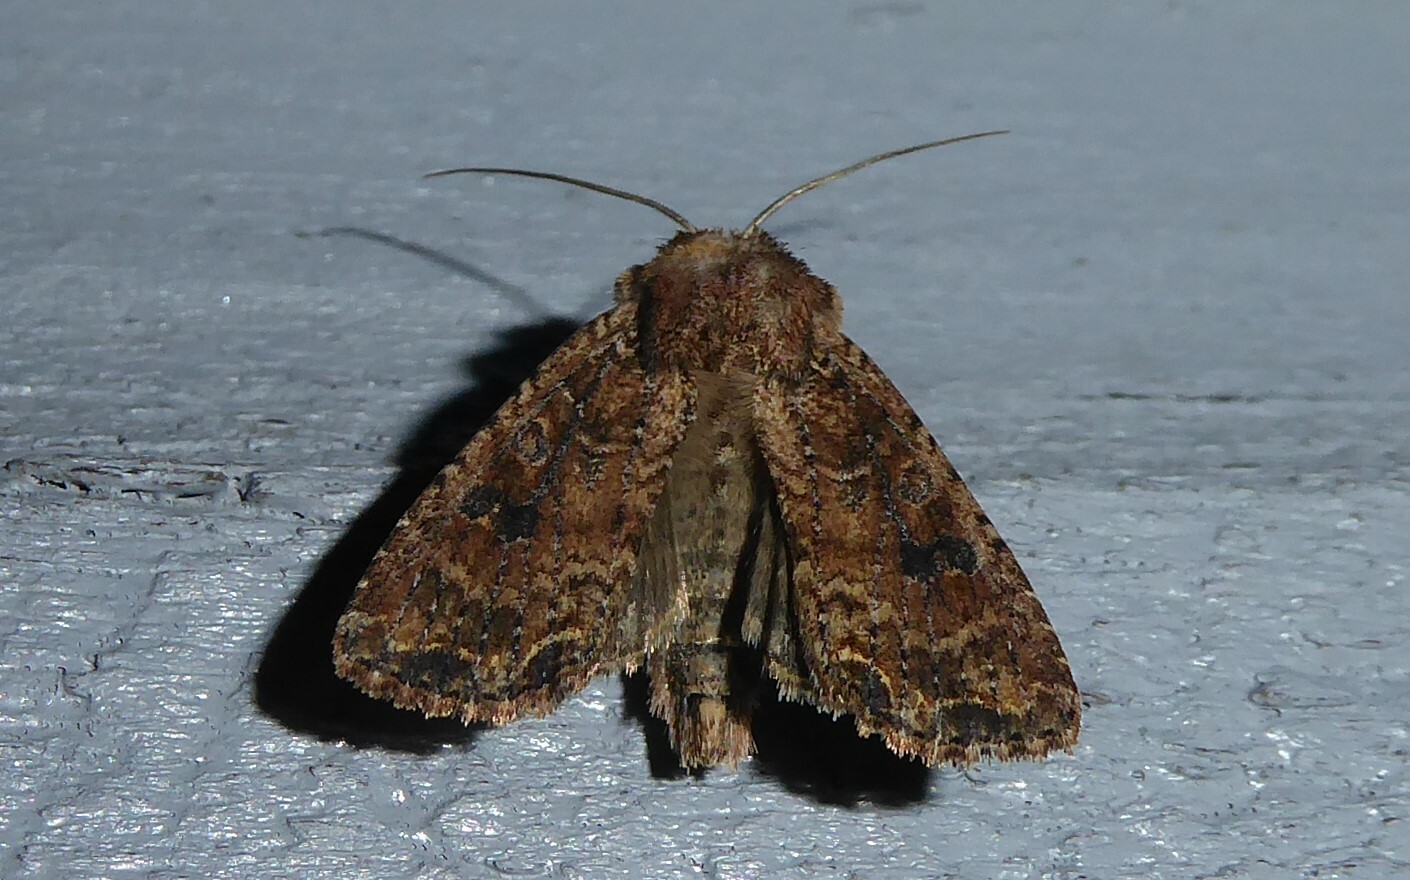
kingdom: Animalia
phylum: Arthropoda
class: Insecta
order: Lepidoptera
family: Noctuidae
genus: Ichneutica
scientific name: Ichneutica morosa
